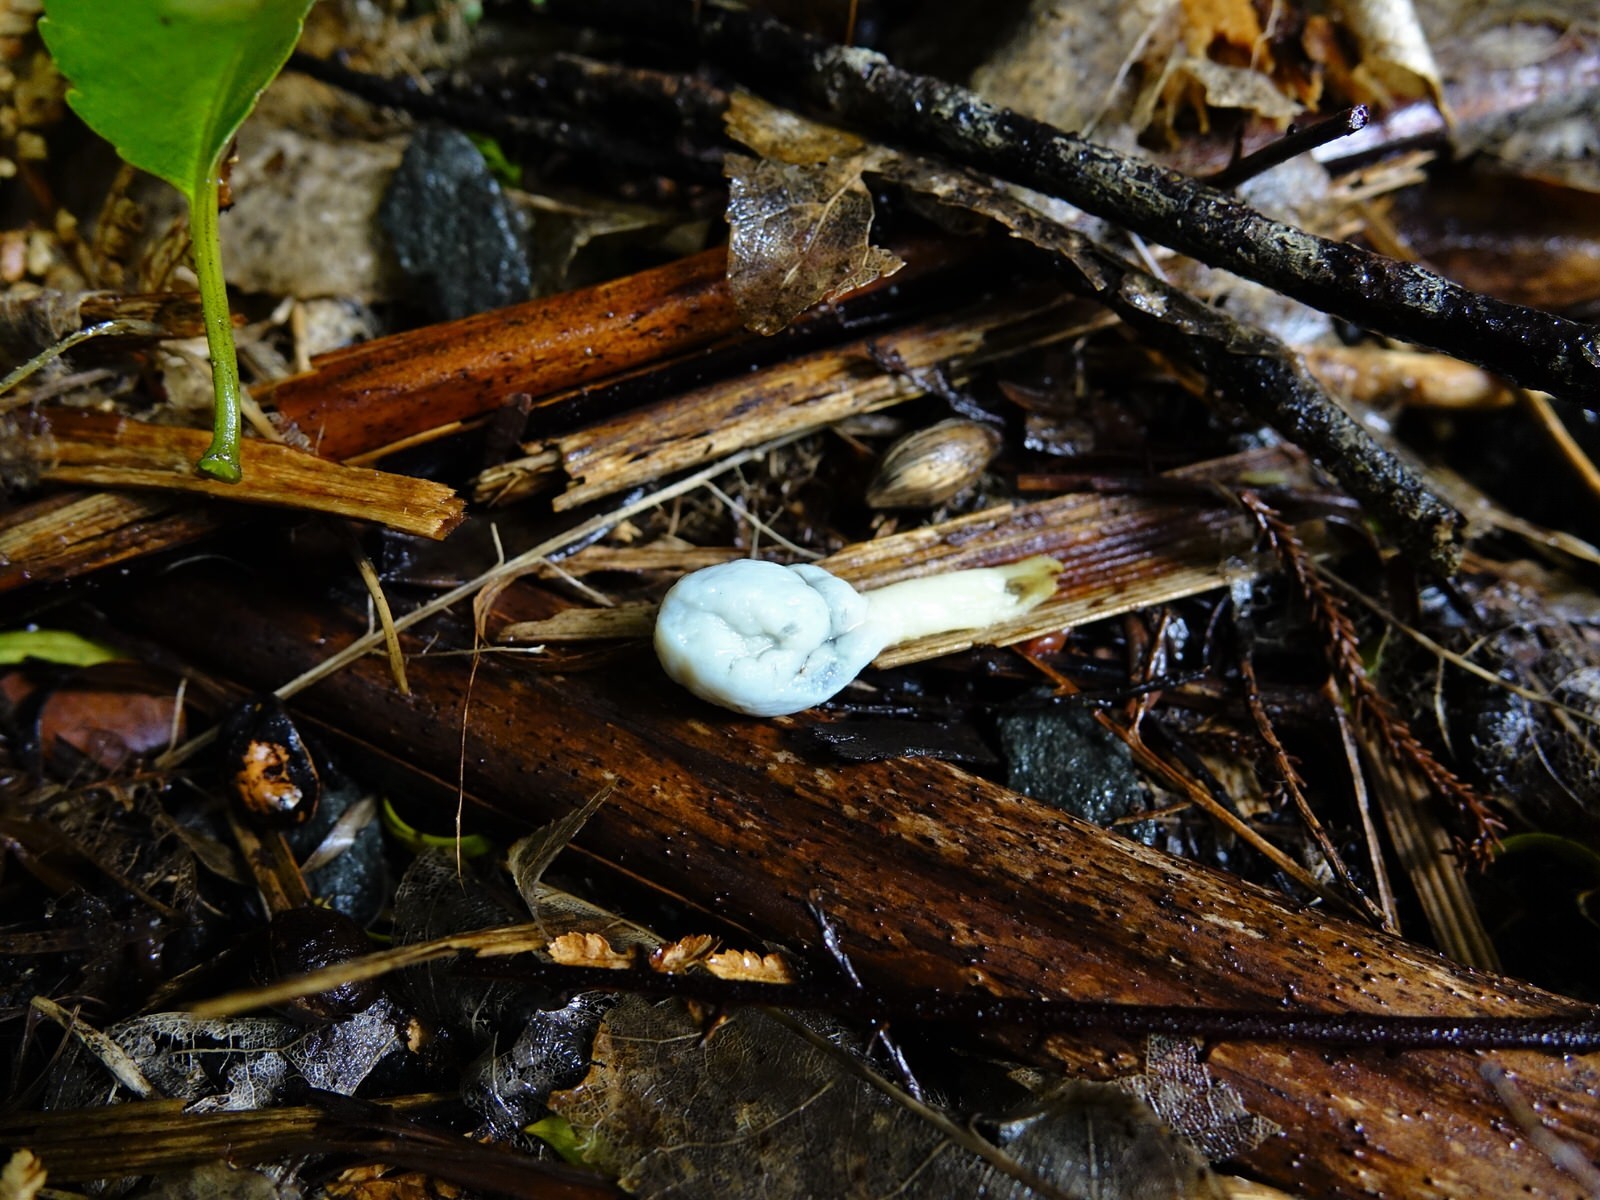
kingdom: Fungi
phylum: Basidiomycota
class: Agaricomycetes
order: Agaricales
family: Agaricaceae
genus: Clavogaster
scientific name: Clavogaster virescens
